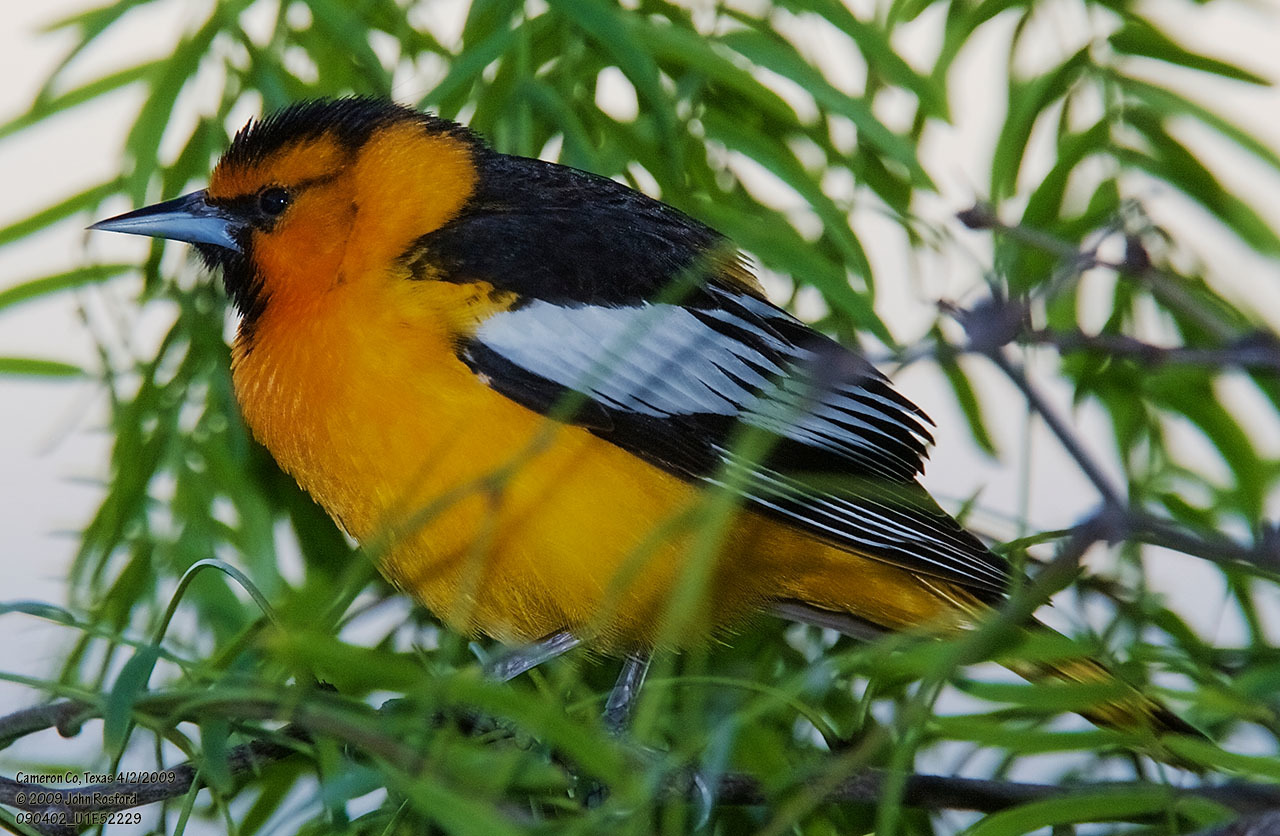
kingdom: Animalia
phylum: Chordata
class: Aves
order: Passeriformes
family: Icteridae
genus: Icterus
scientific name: Icterus bullockii
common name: Bullock's oriole
